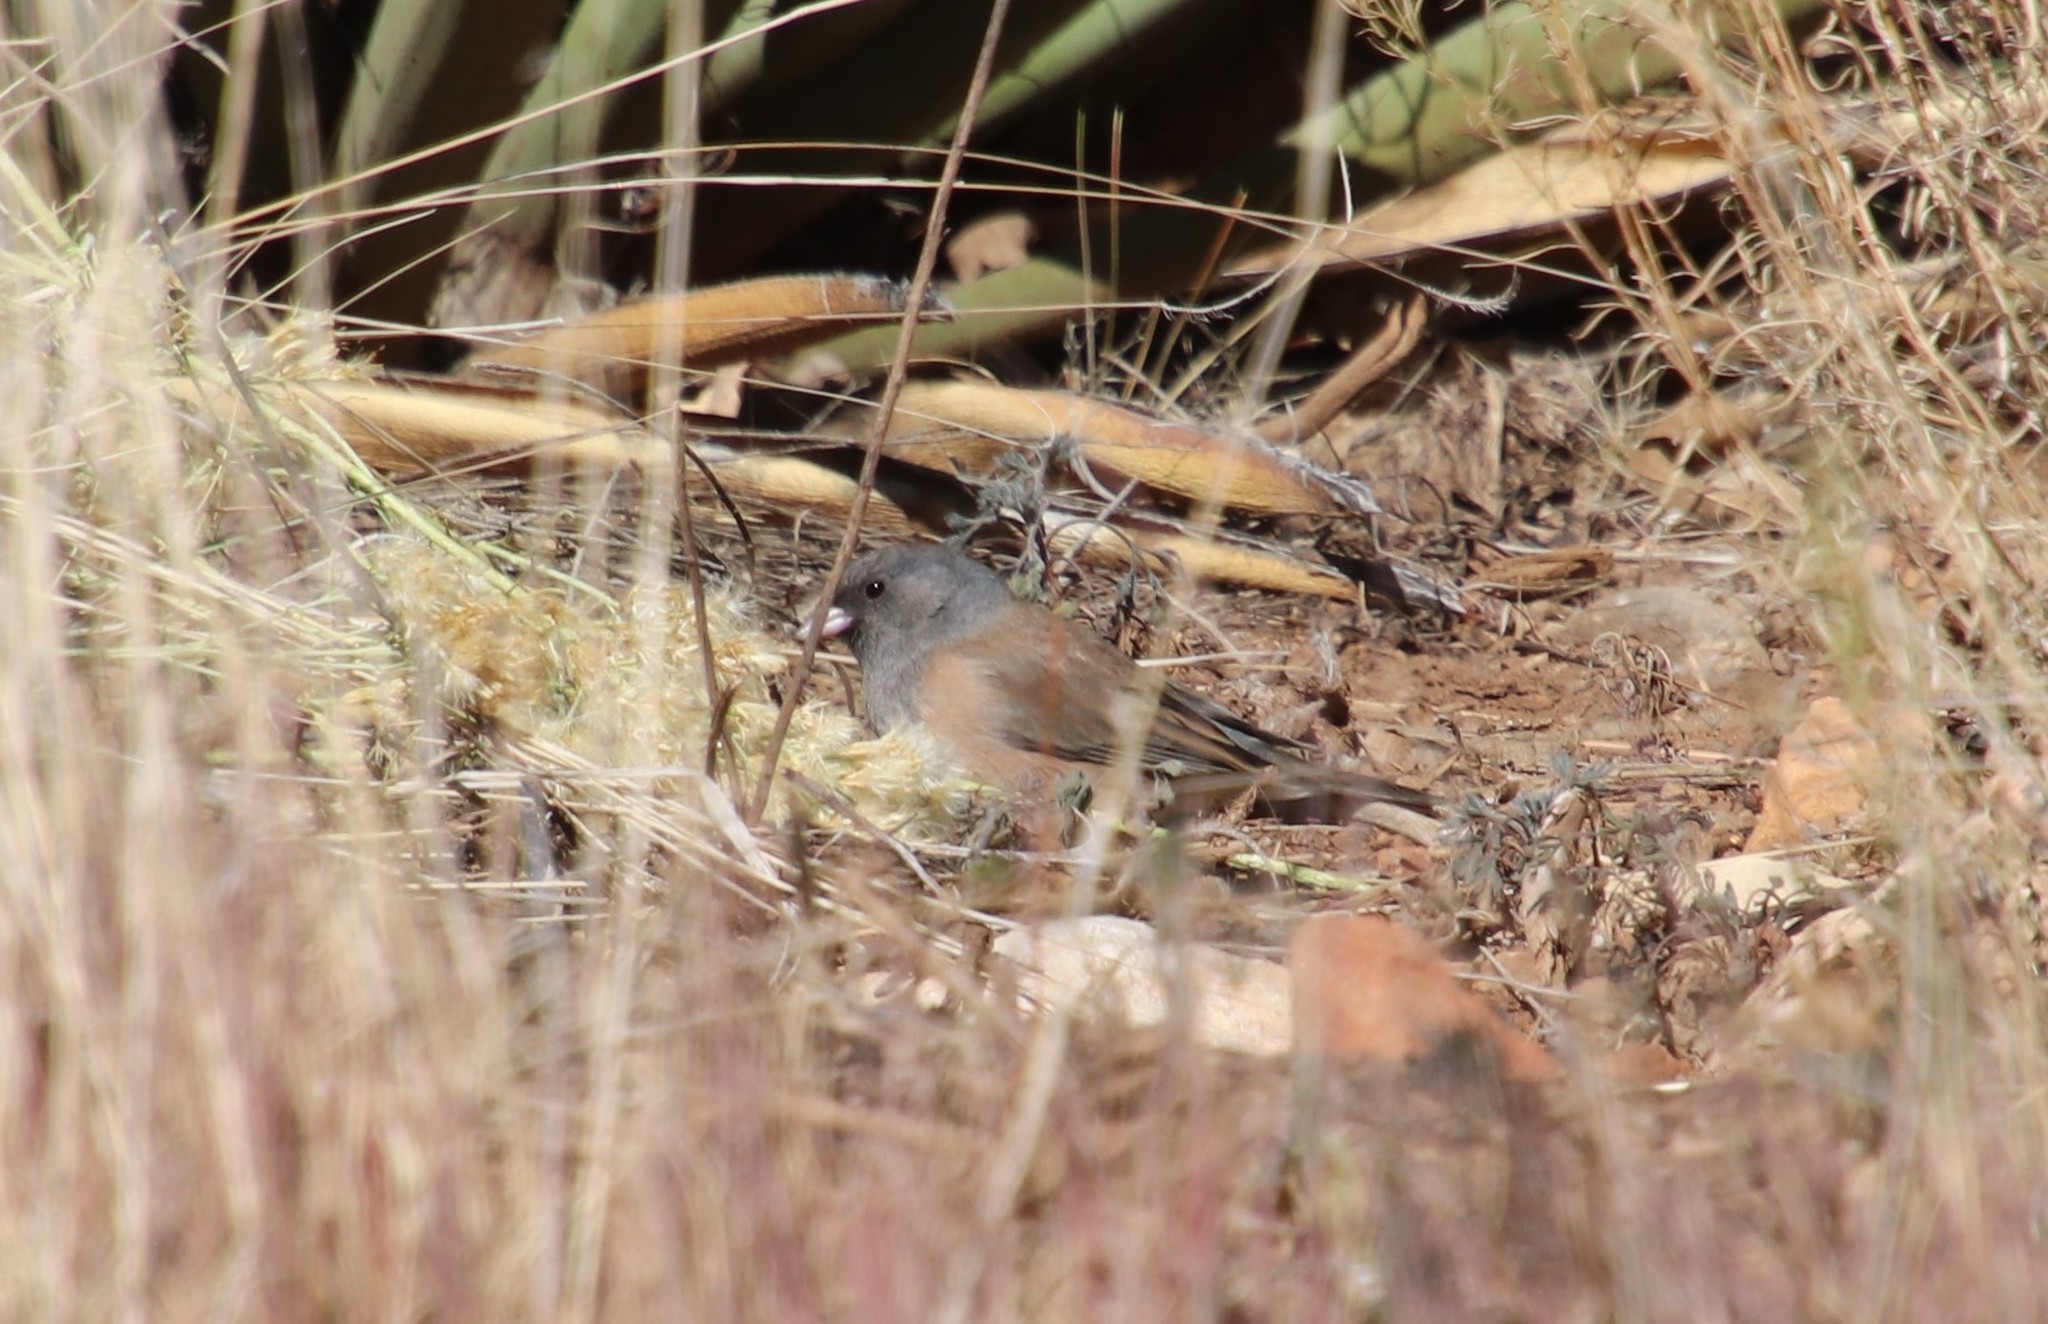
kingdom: Animalia
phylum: Chordata
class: Aves
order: Passeriformes
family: Passerellidae
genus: Junco
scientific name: Junco hyemalis
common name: Dark-eyed junco
